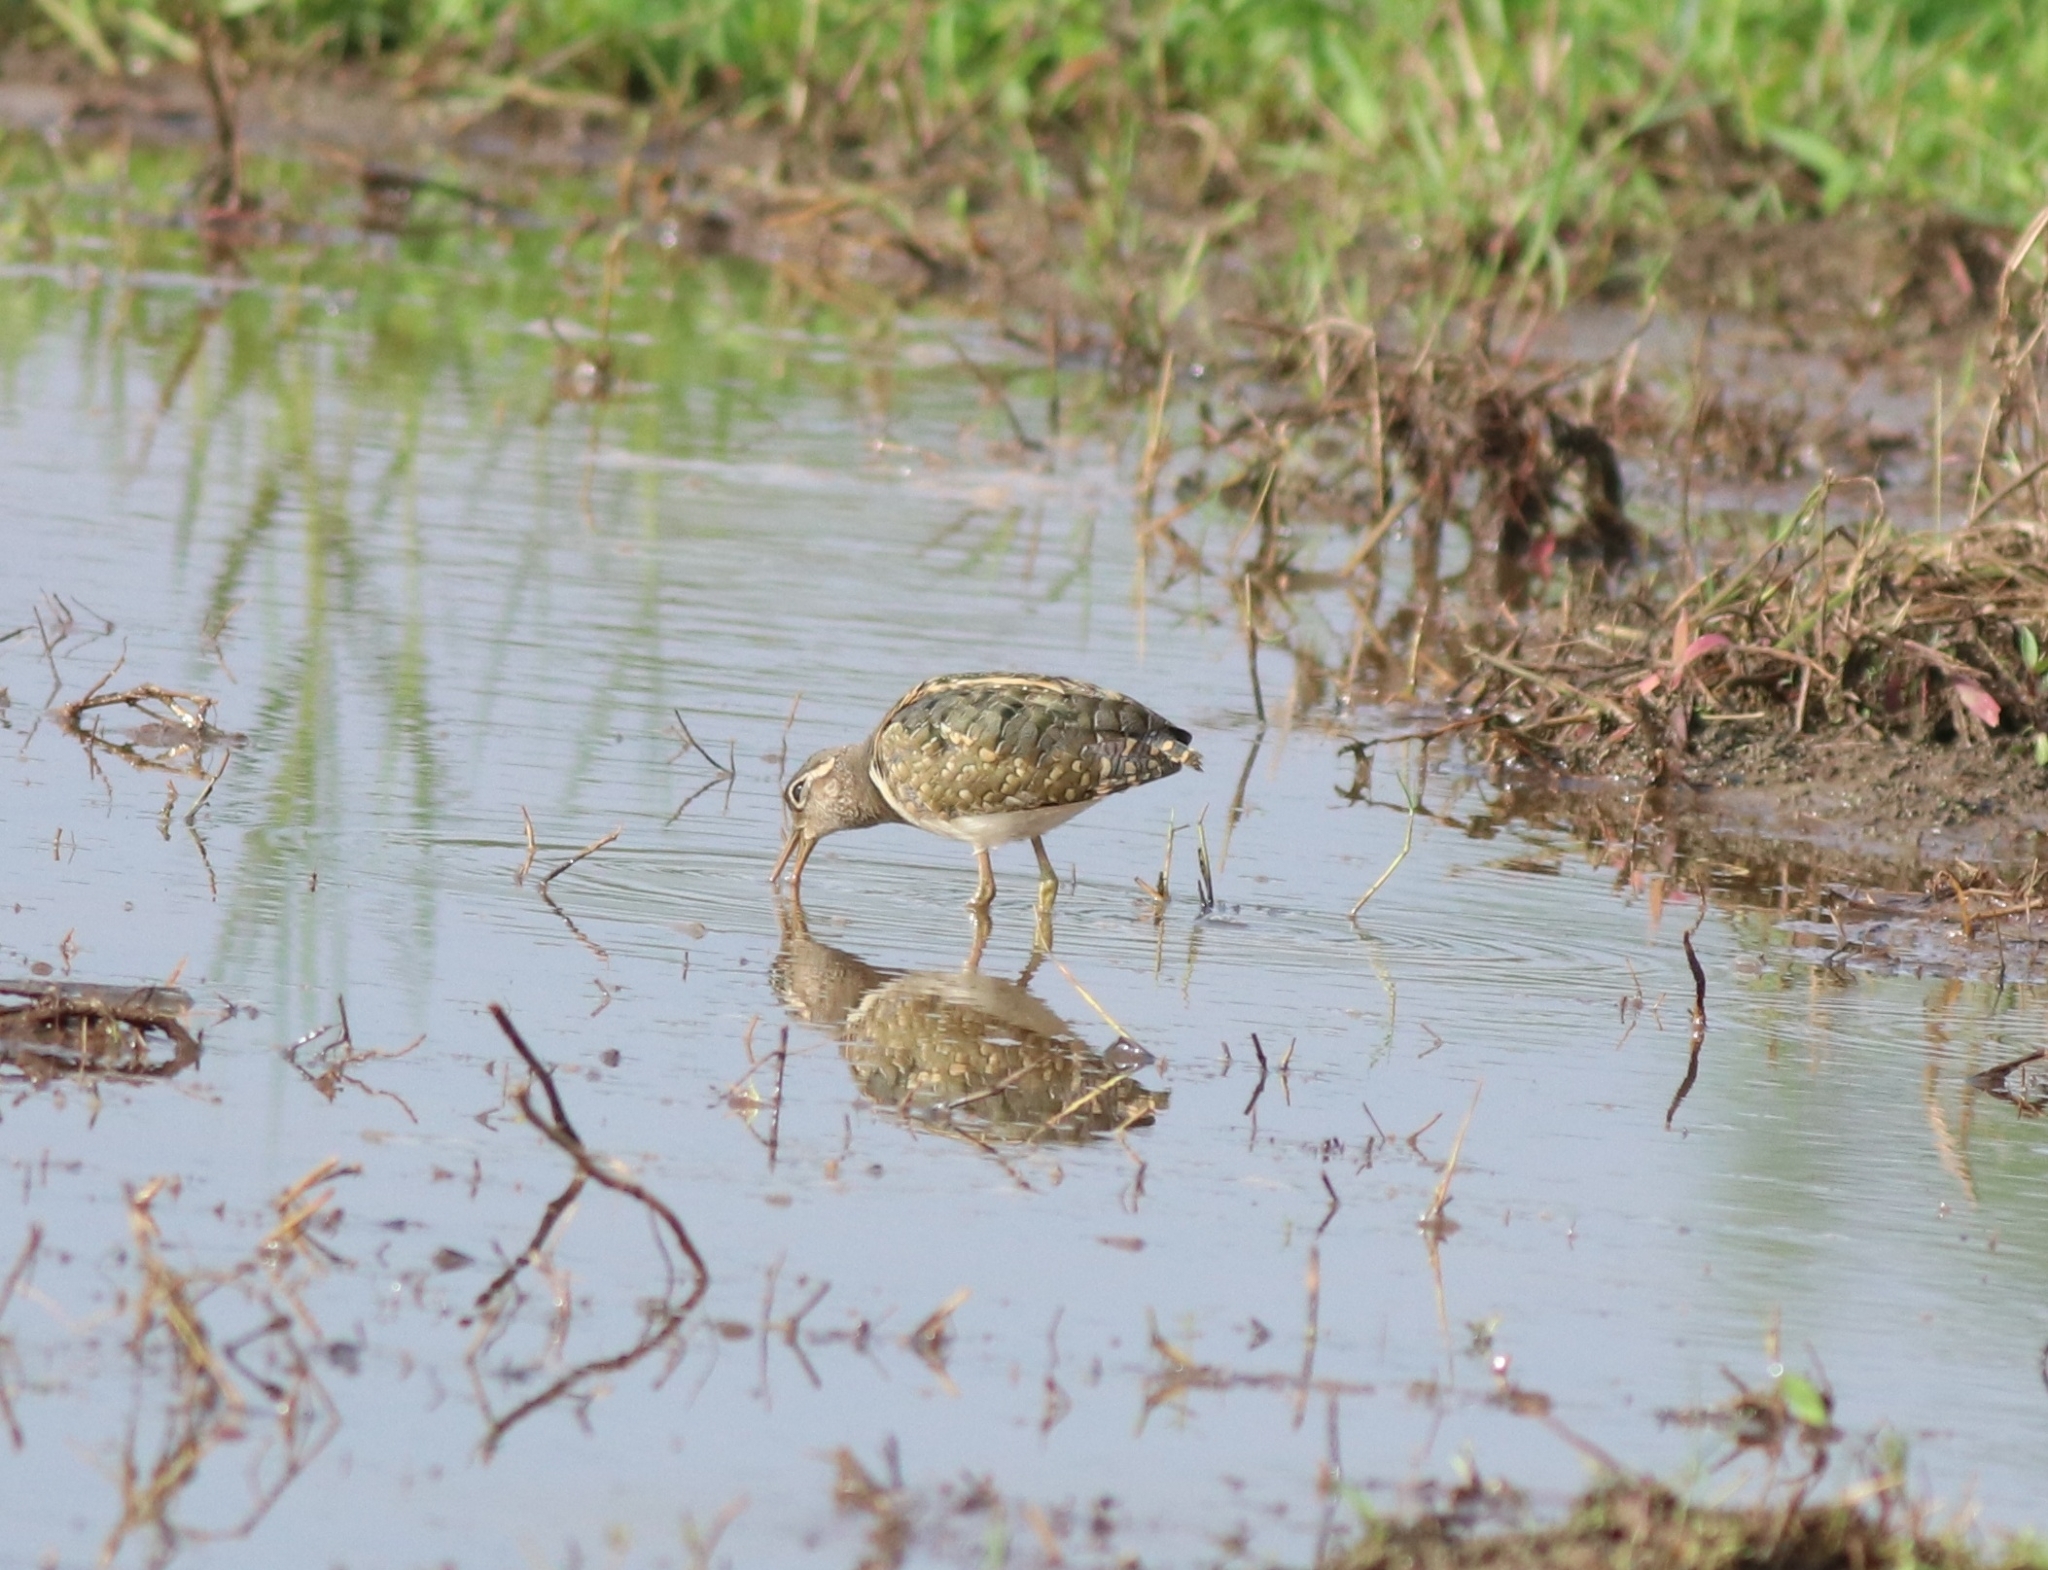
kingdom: Animalia
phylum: Chordata
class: Aves
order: Charadriiformes
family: Rostratulidae
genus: Rostratula
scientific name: Rostratula benghalensis
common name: Greater painted-snipe
